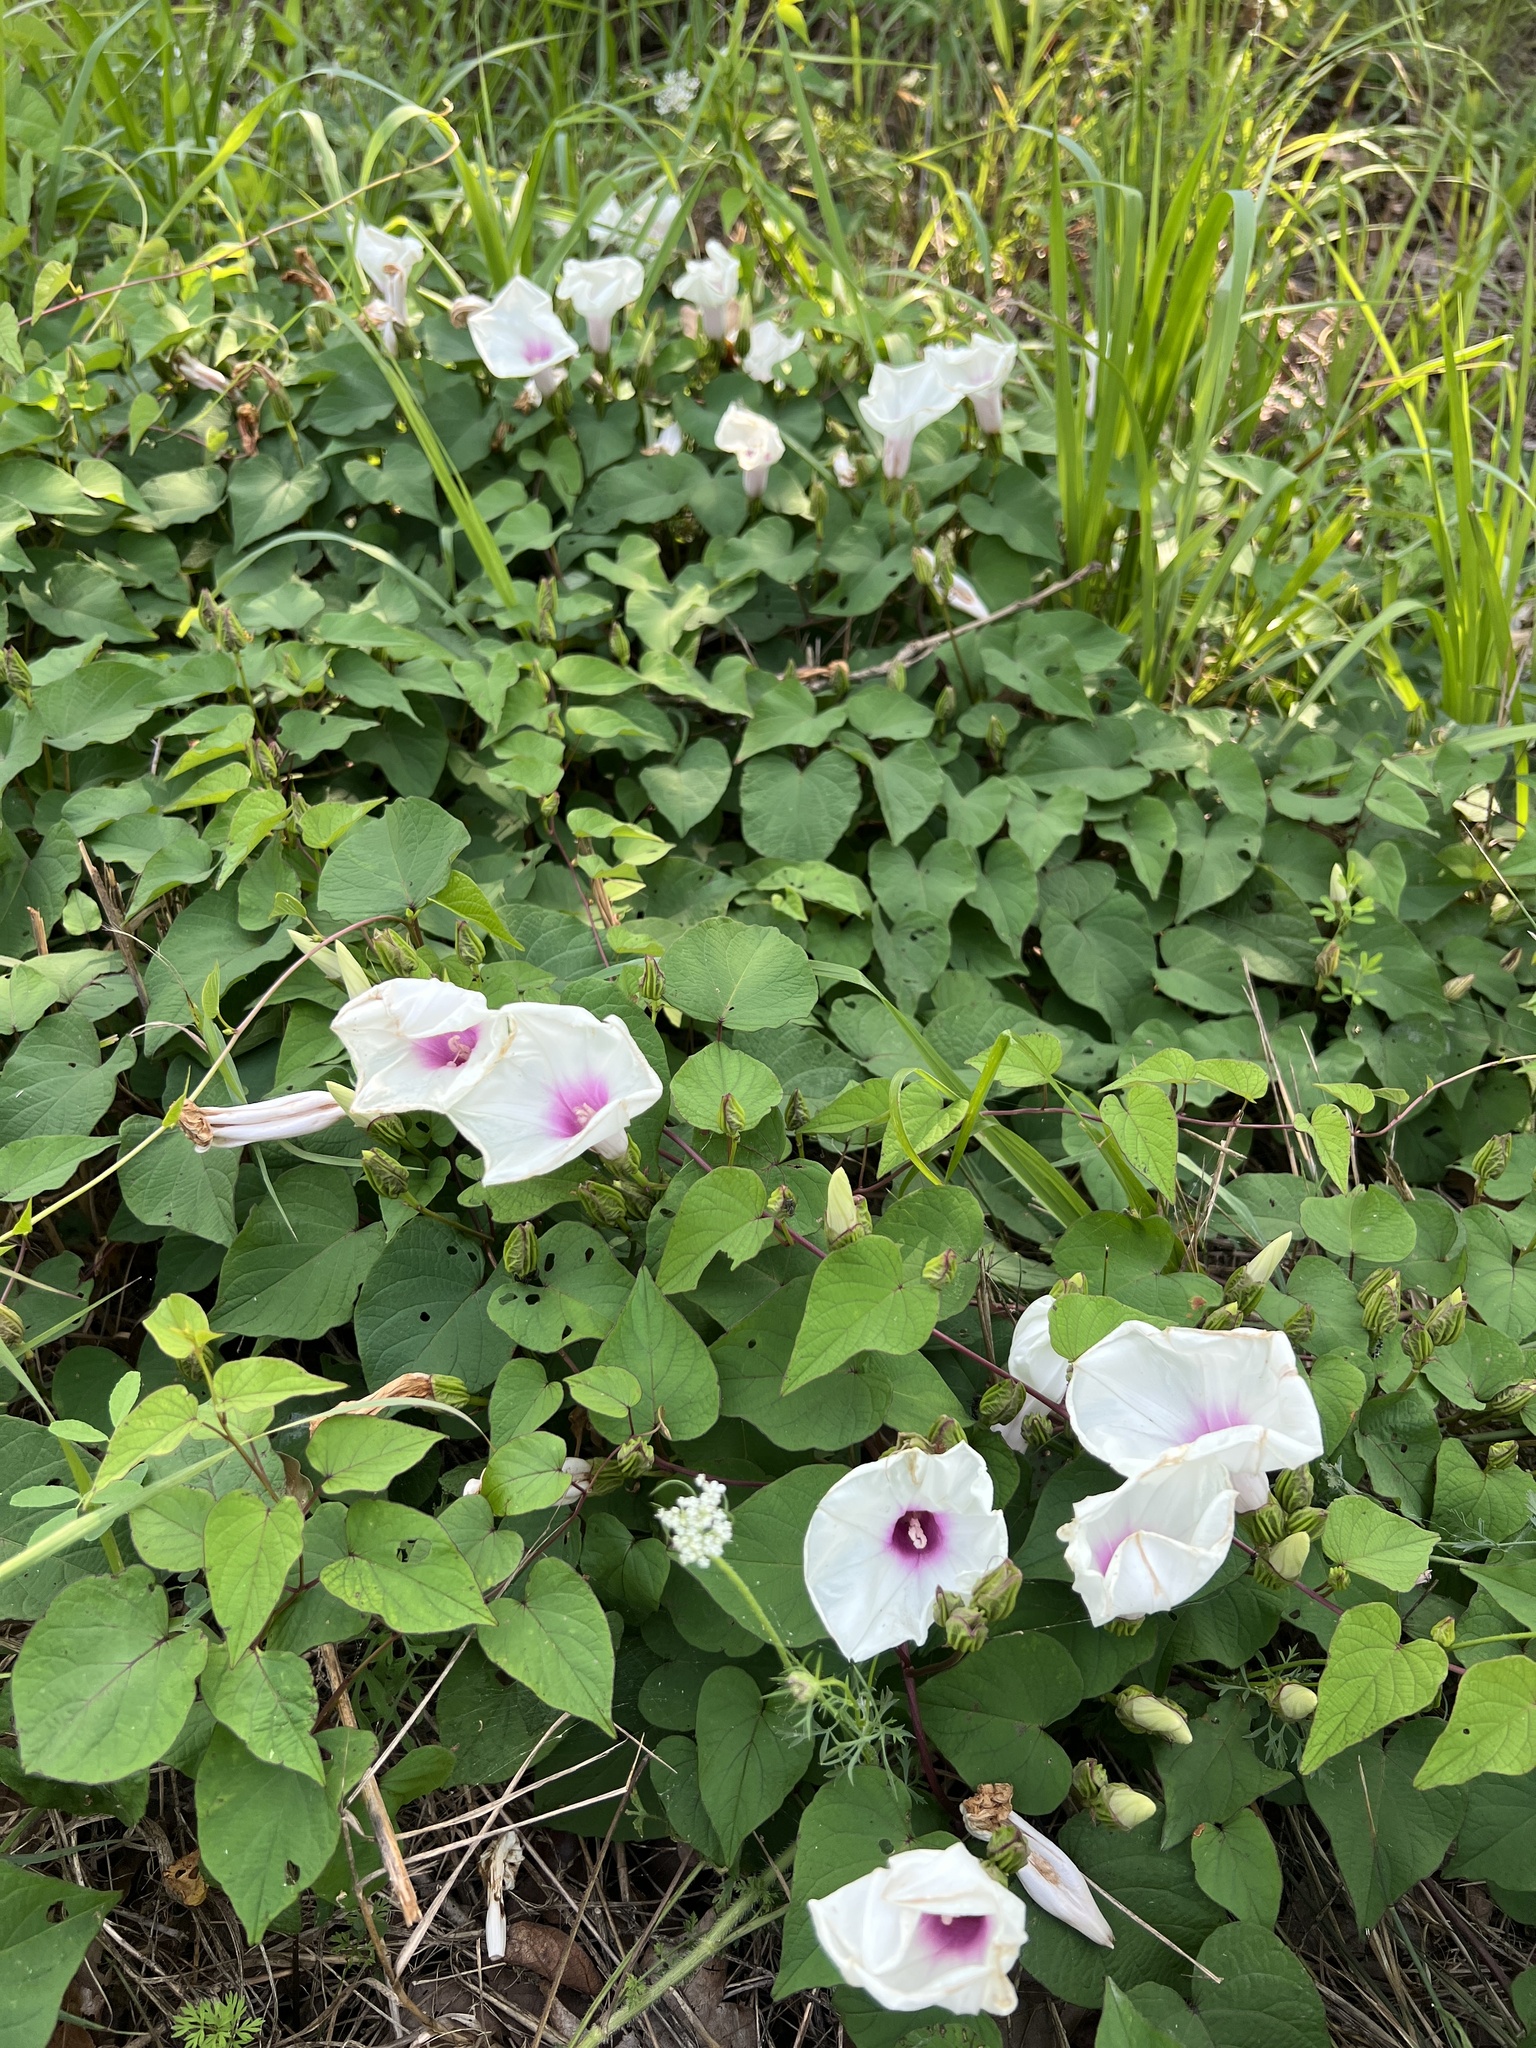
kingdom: Plantae
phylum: Tracheophyta
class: Magnoliopsida
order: Solanales
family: Convolvulaceae
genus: Ipomoea
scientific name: Ipomoea pandurata
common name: Man-of-the-earth
